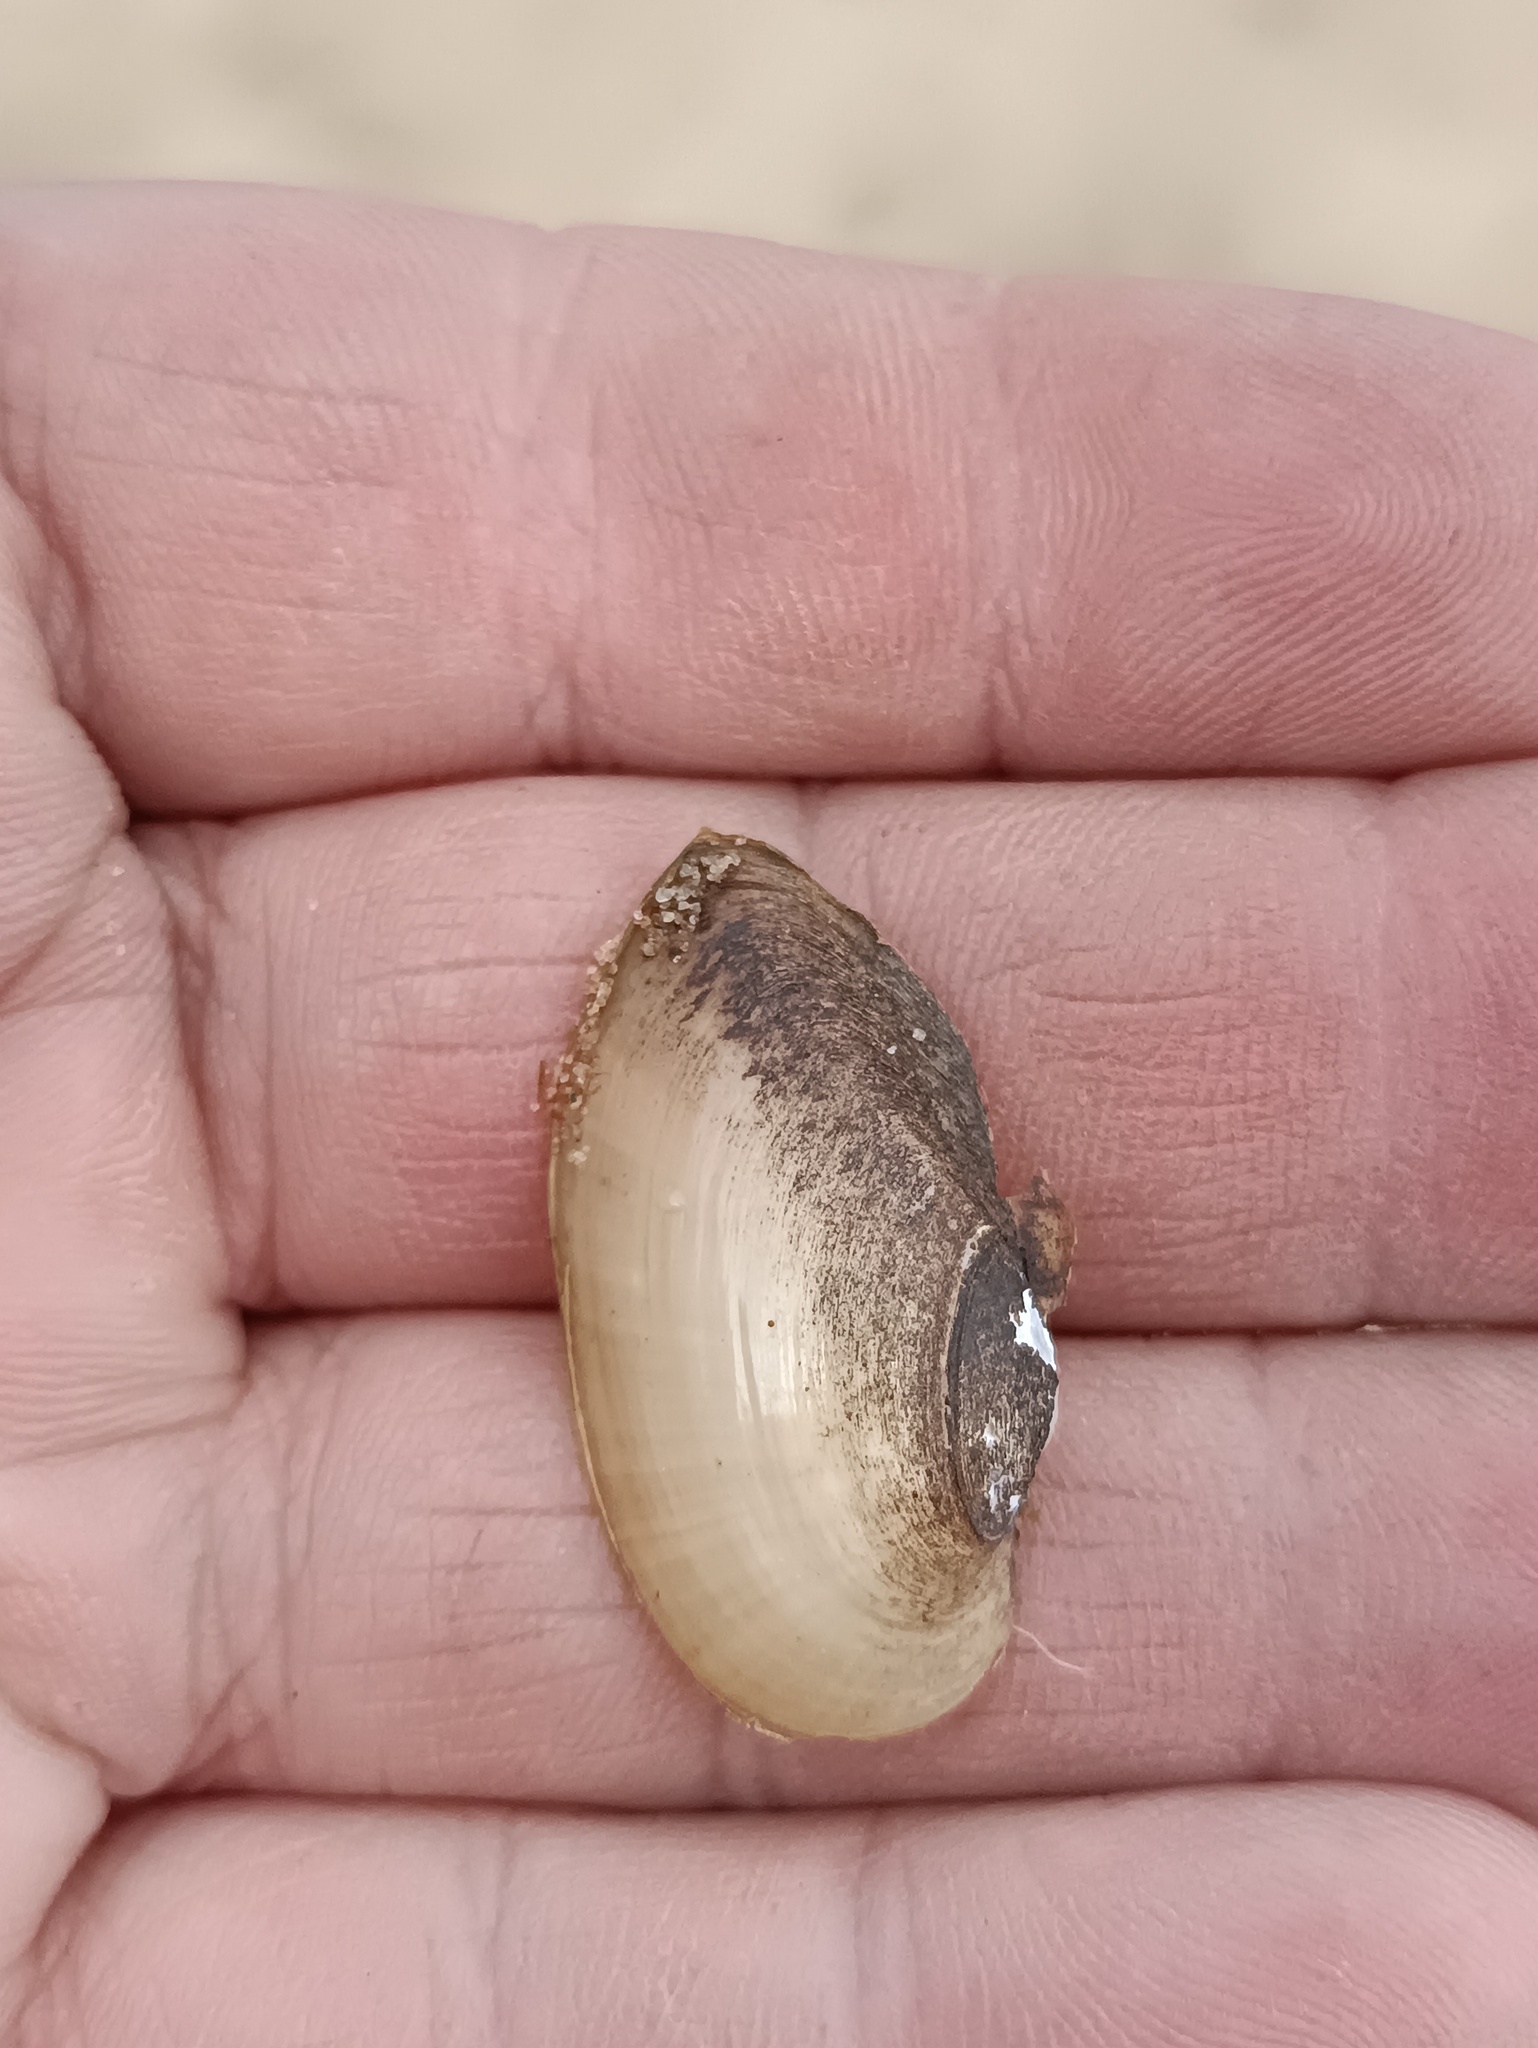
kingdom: Animalia
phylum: Mollusca
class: Bivalvia
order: Unionida
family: Unionidae
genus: Unio
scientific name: Unio pictorum
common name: Painter's mussel
